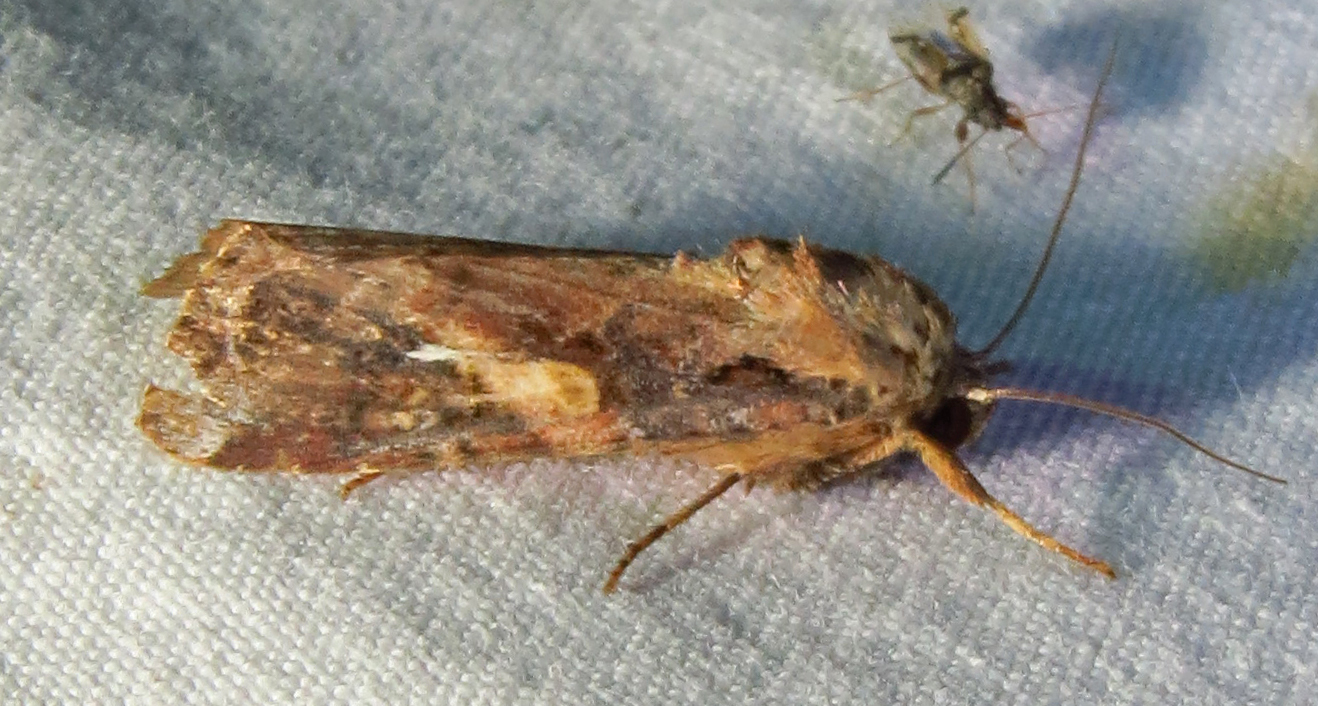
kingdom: Animalia
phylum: Arthropoda
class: Insecta
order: Lepidoptera
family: Noctuidae
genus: Spodoptera
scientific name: Spodoptera frugiperda
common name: Fall armyworm
